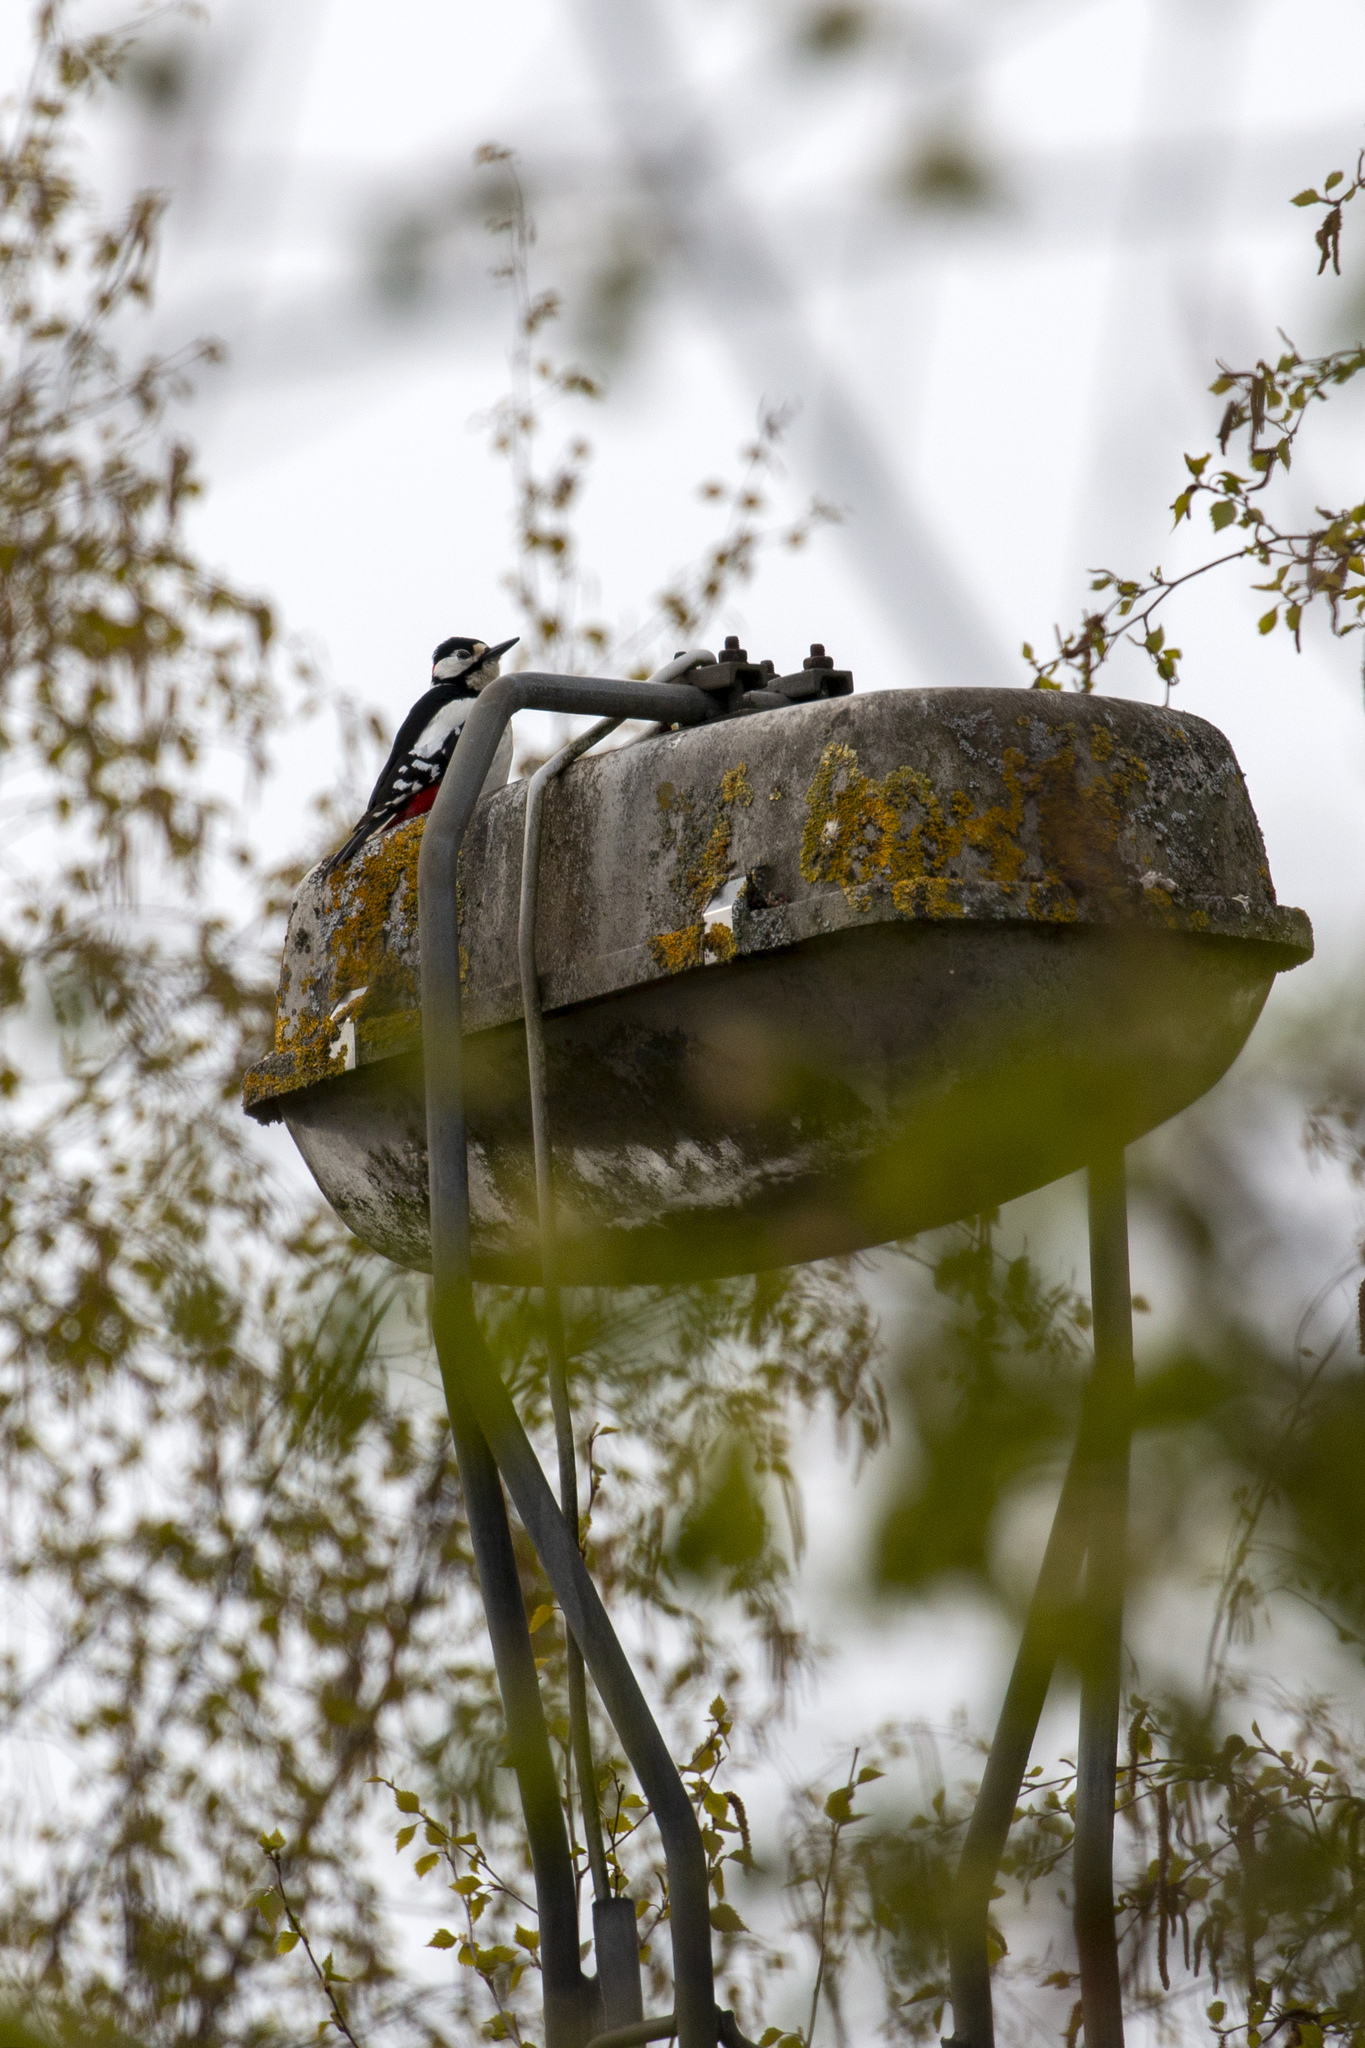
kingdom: Animalia
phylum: Chordata
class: Aves
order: Piciformes
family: Picidae
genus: Dendrocopos
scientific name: Dendrocopos major
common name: Great spotted woodpecker
